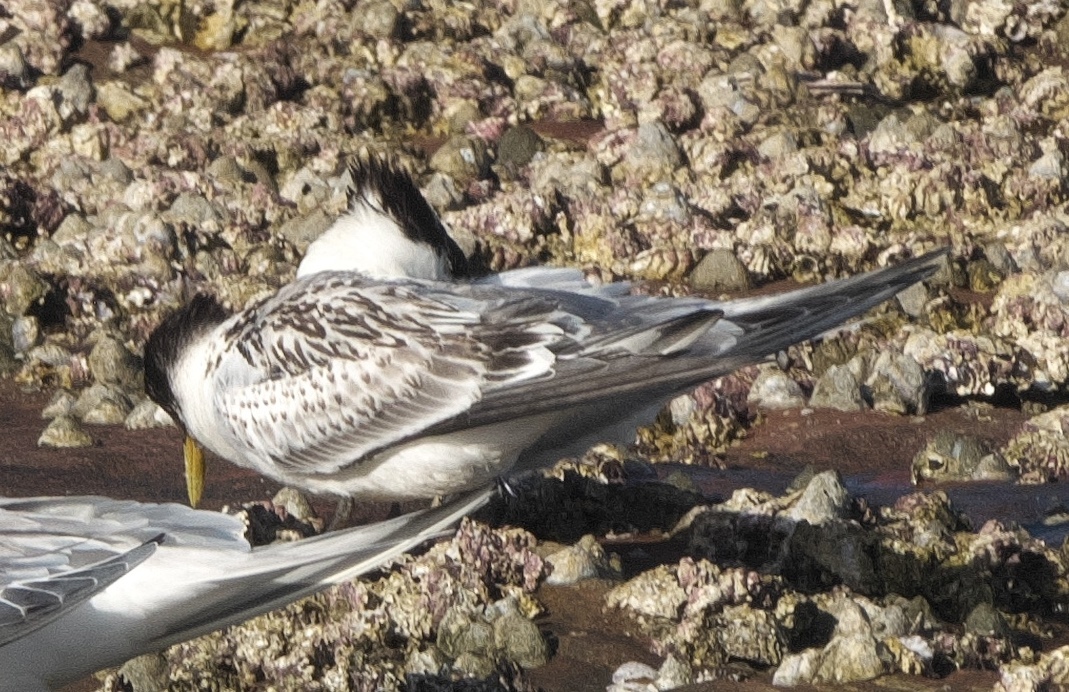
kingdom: Animalia
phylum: Chordata
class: Aves
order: Charadriiformes
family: Laridae
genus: Thalasseus
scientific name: Thalasseus bergii
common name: Greater crested tern
